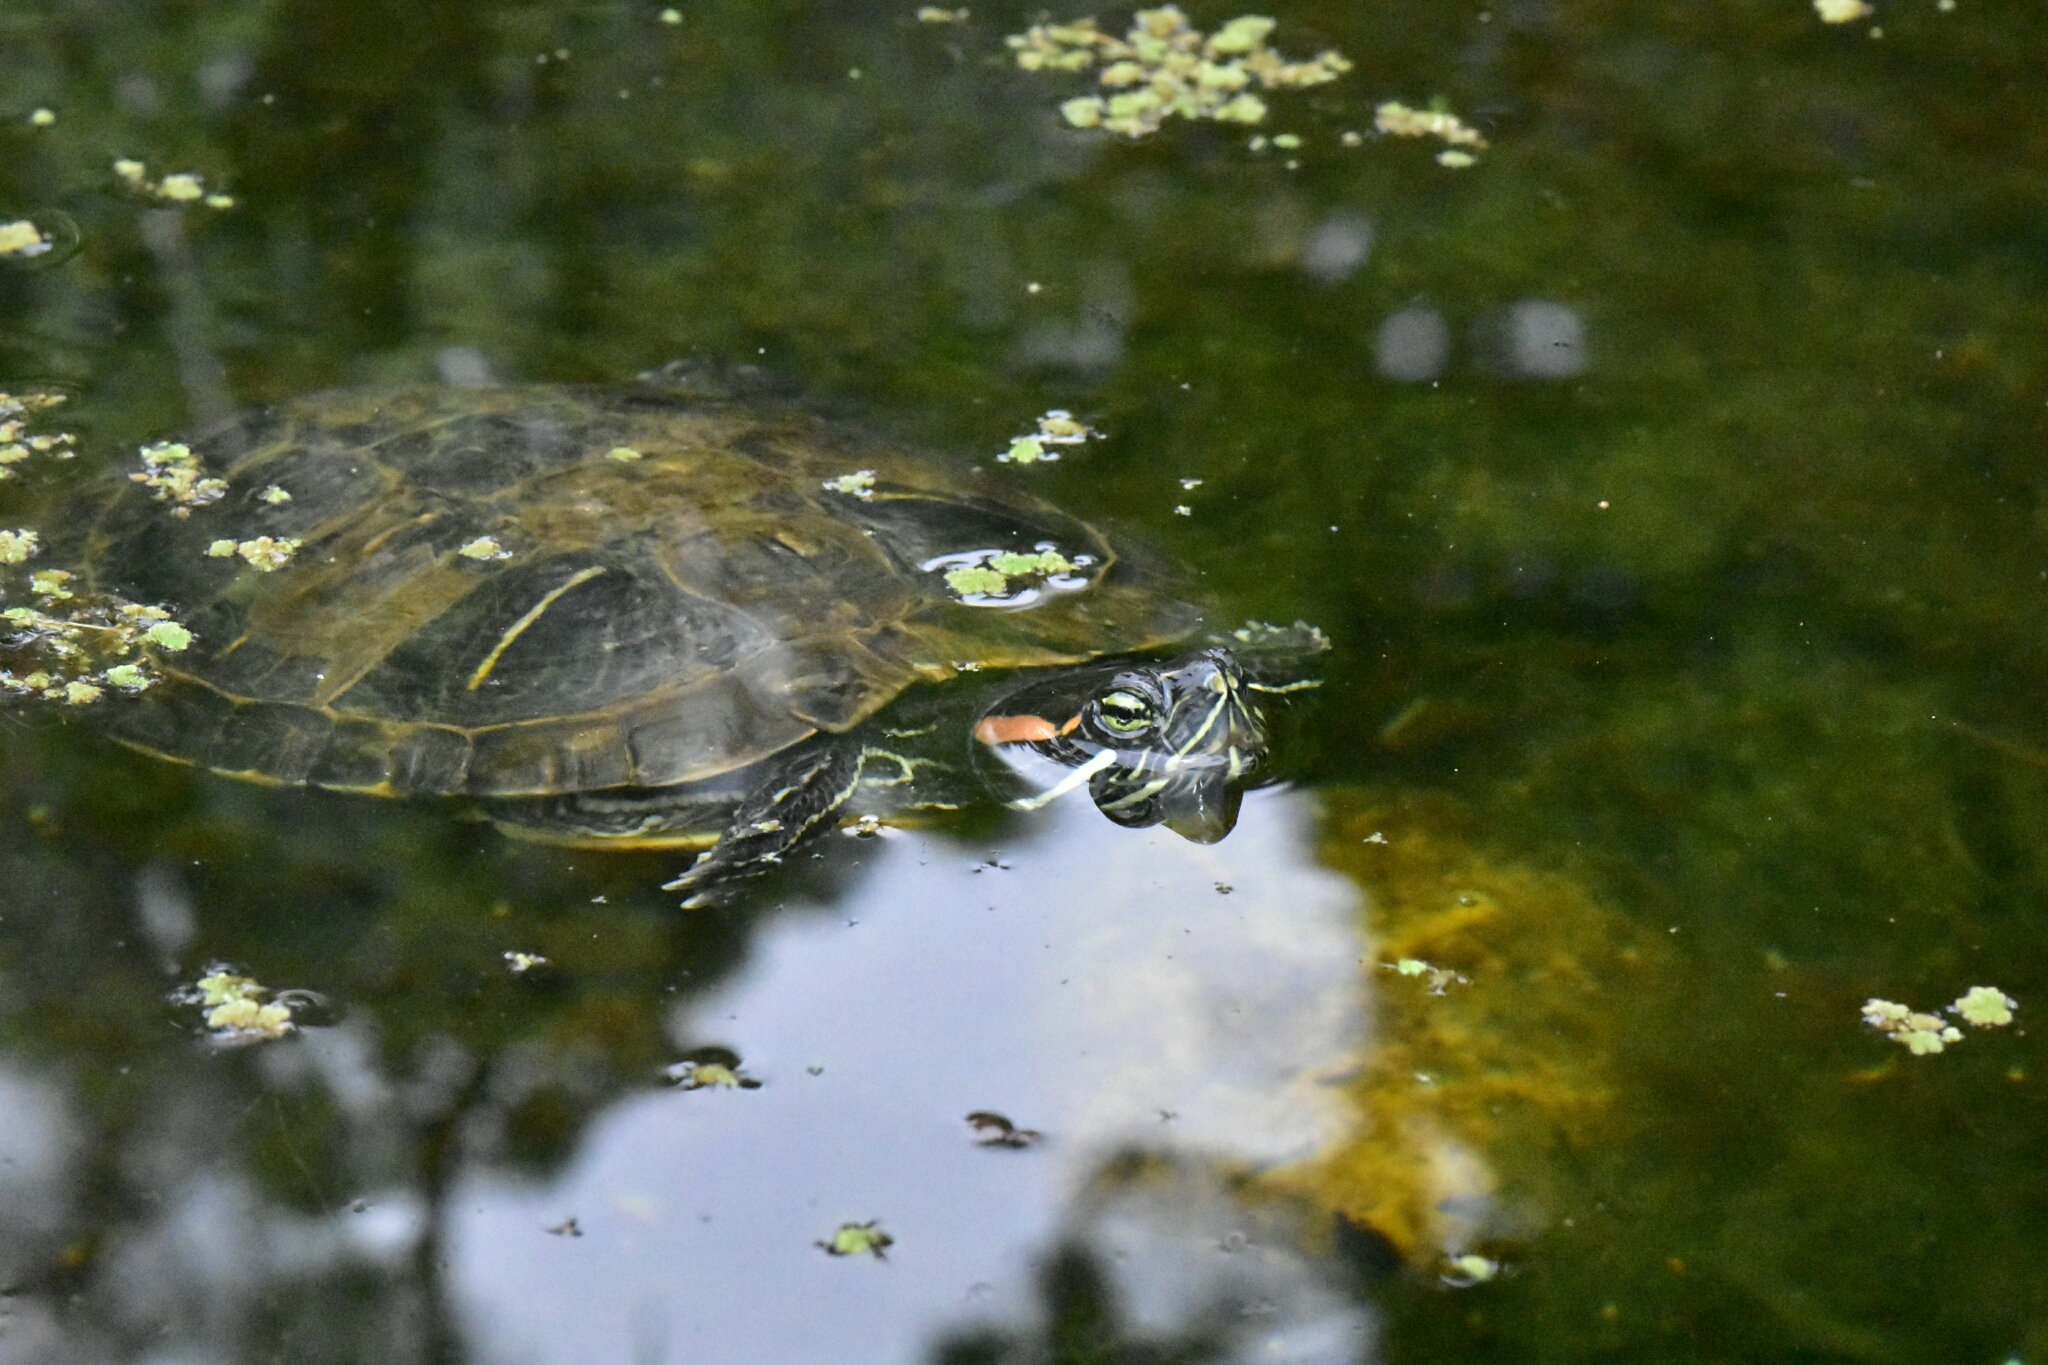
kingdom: Animalia
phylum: Chordata
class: Testudines
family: Emydidae
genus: Trachemys
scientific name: Trachemys scripta
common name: Slider
